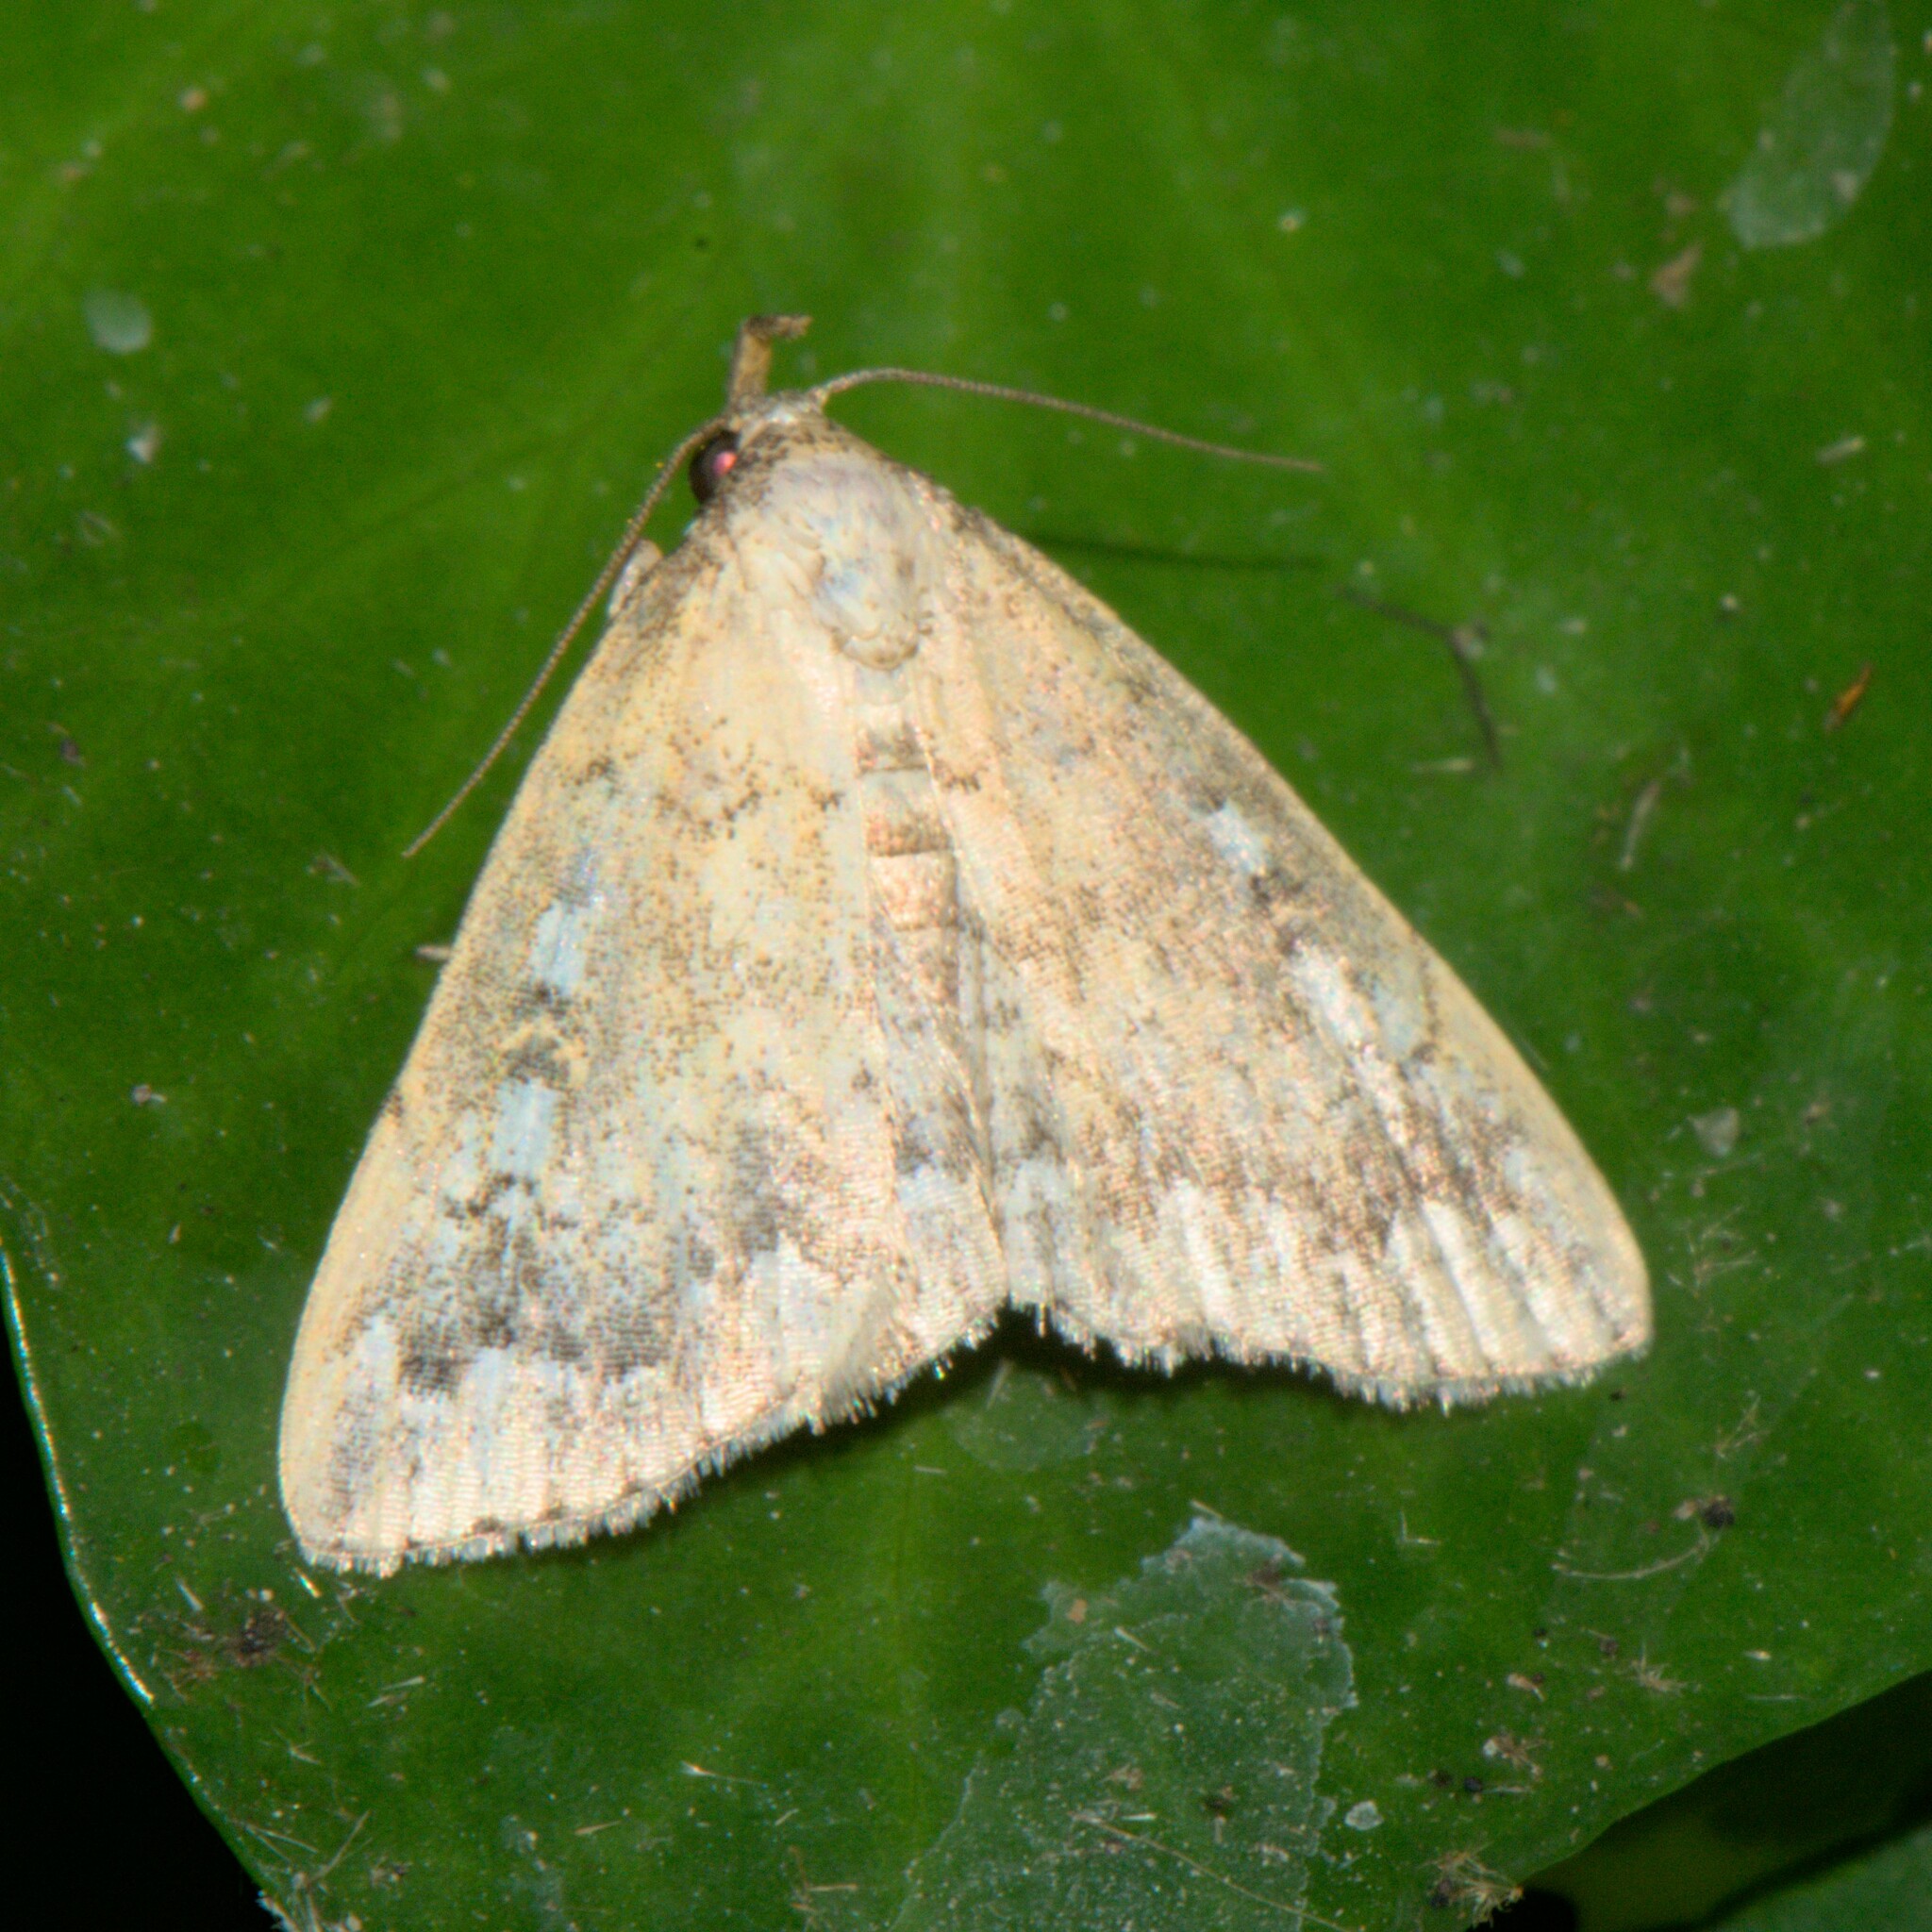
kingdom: Animalia
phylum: Arthropoda
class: Insecta
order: Lepidoptera
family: Erebidae
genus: Herminia
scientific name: Herminia
